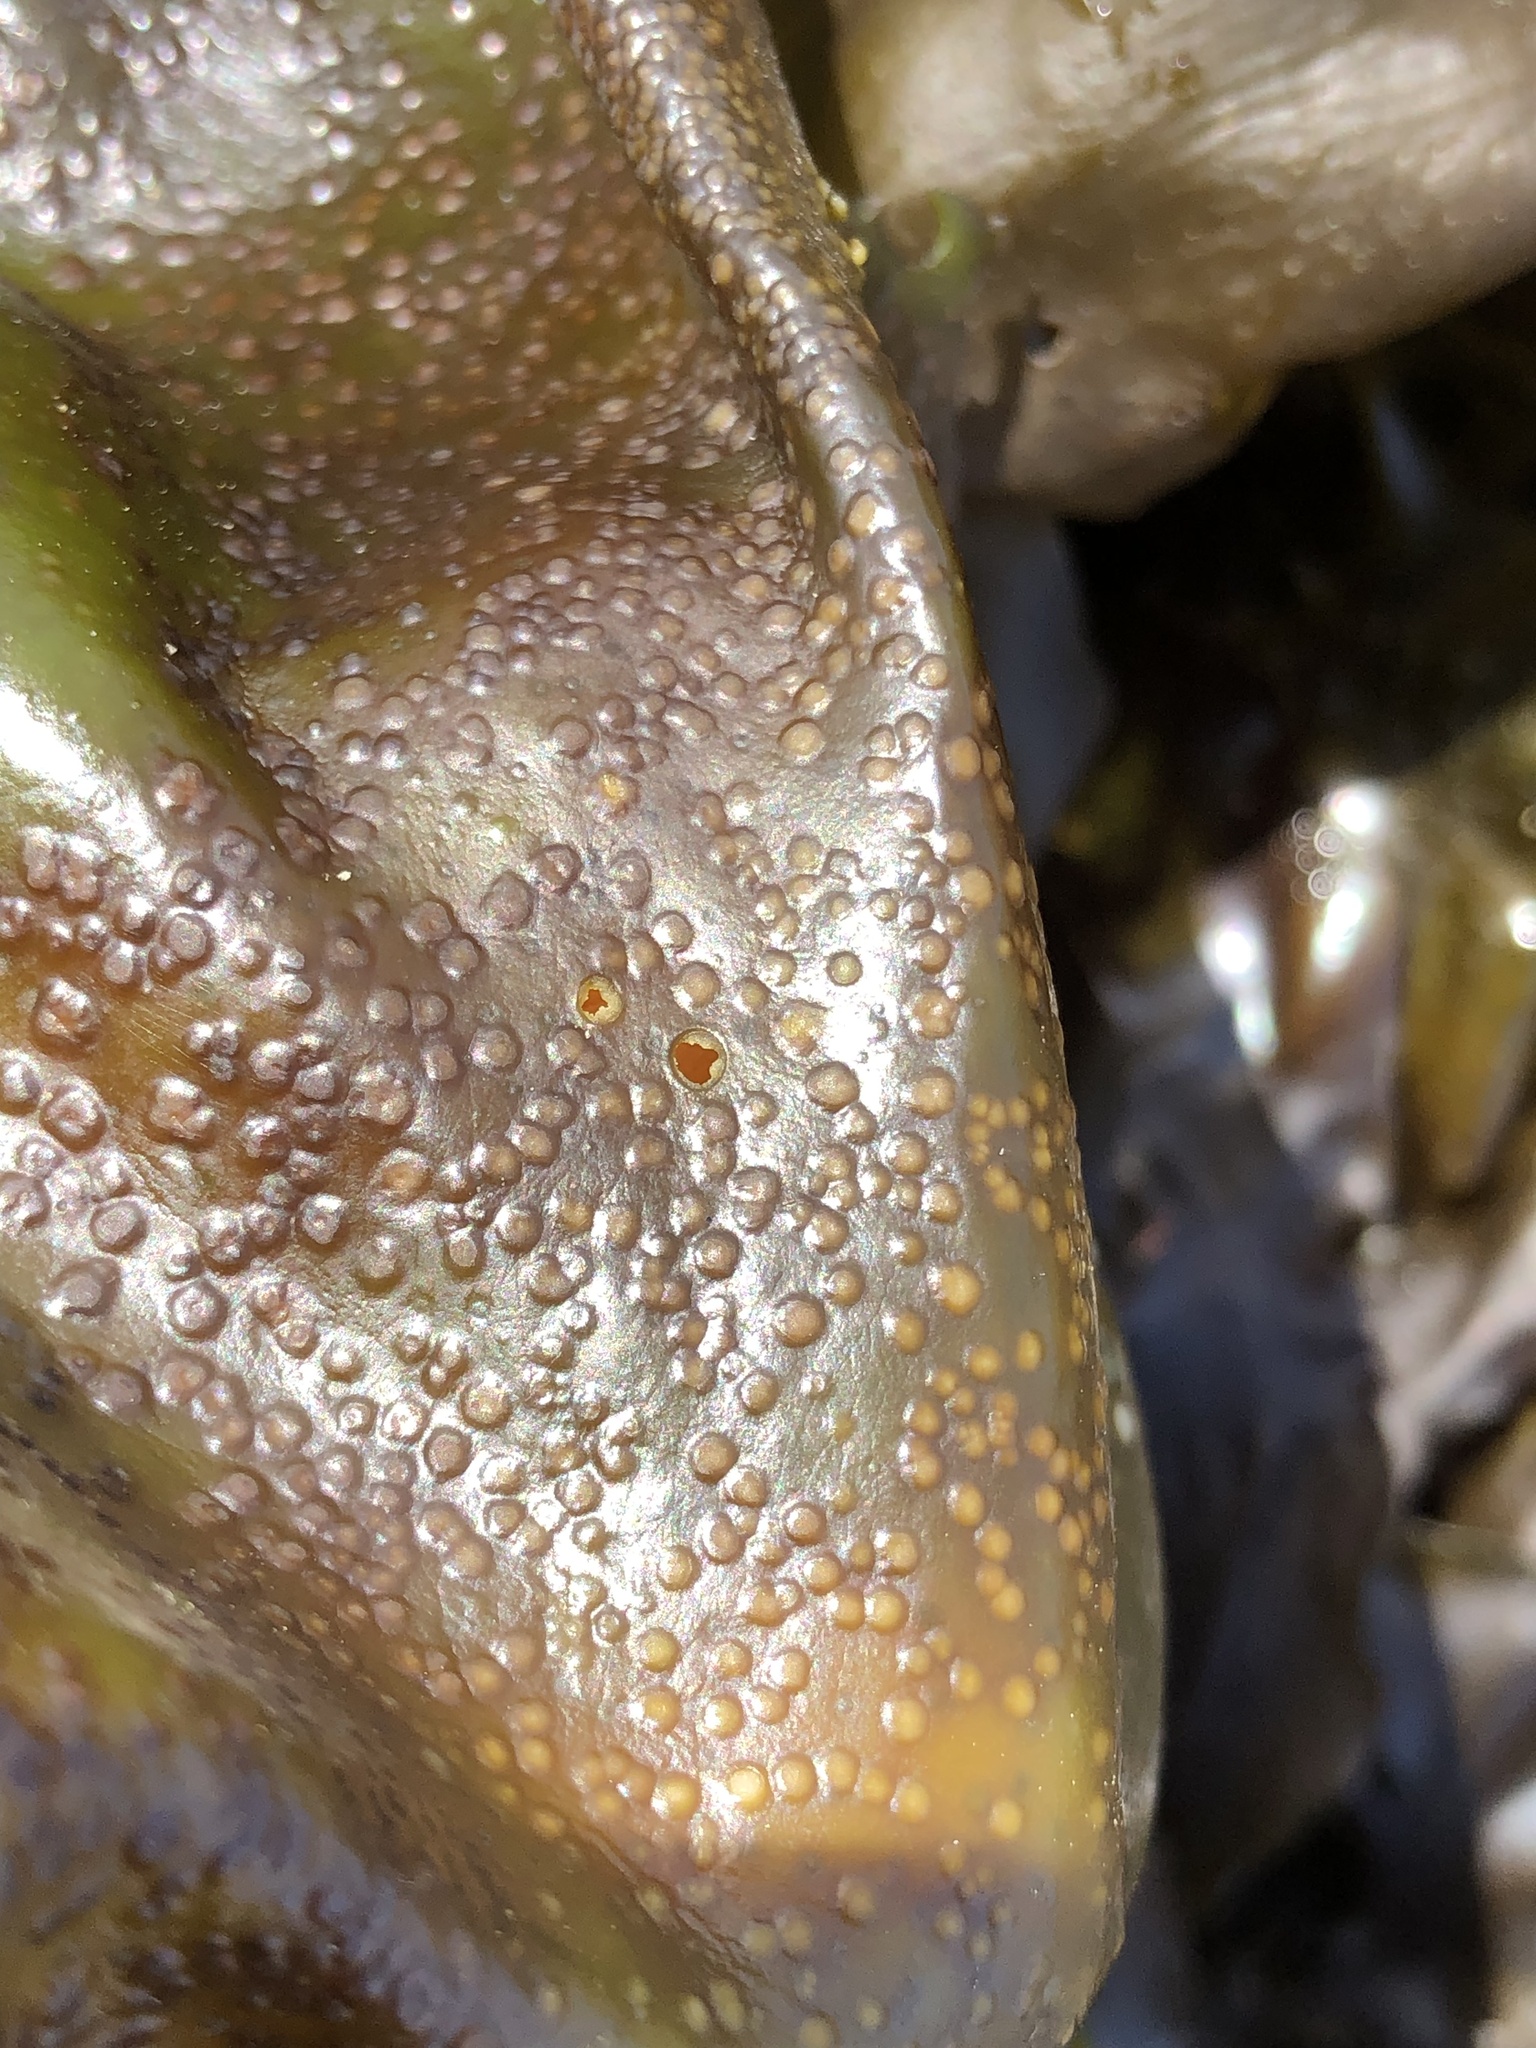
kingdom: Plantae
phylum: Rhodophyta
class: Florideophyceae
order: Gigartinales
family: Gigartinaceae
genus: Mazzaella
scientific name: Mazzaella flaccida
